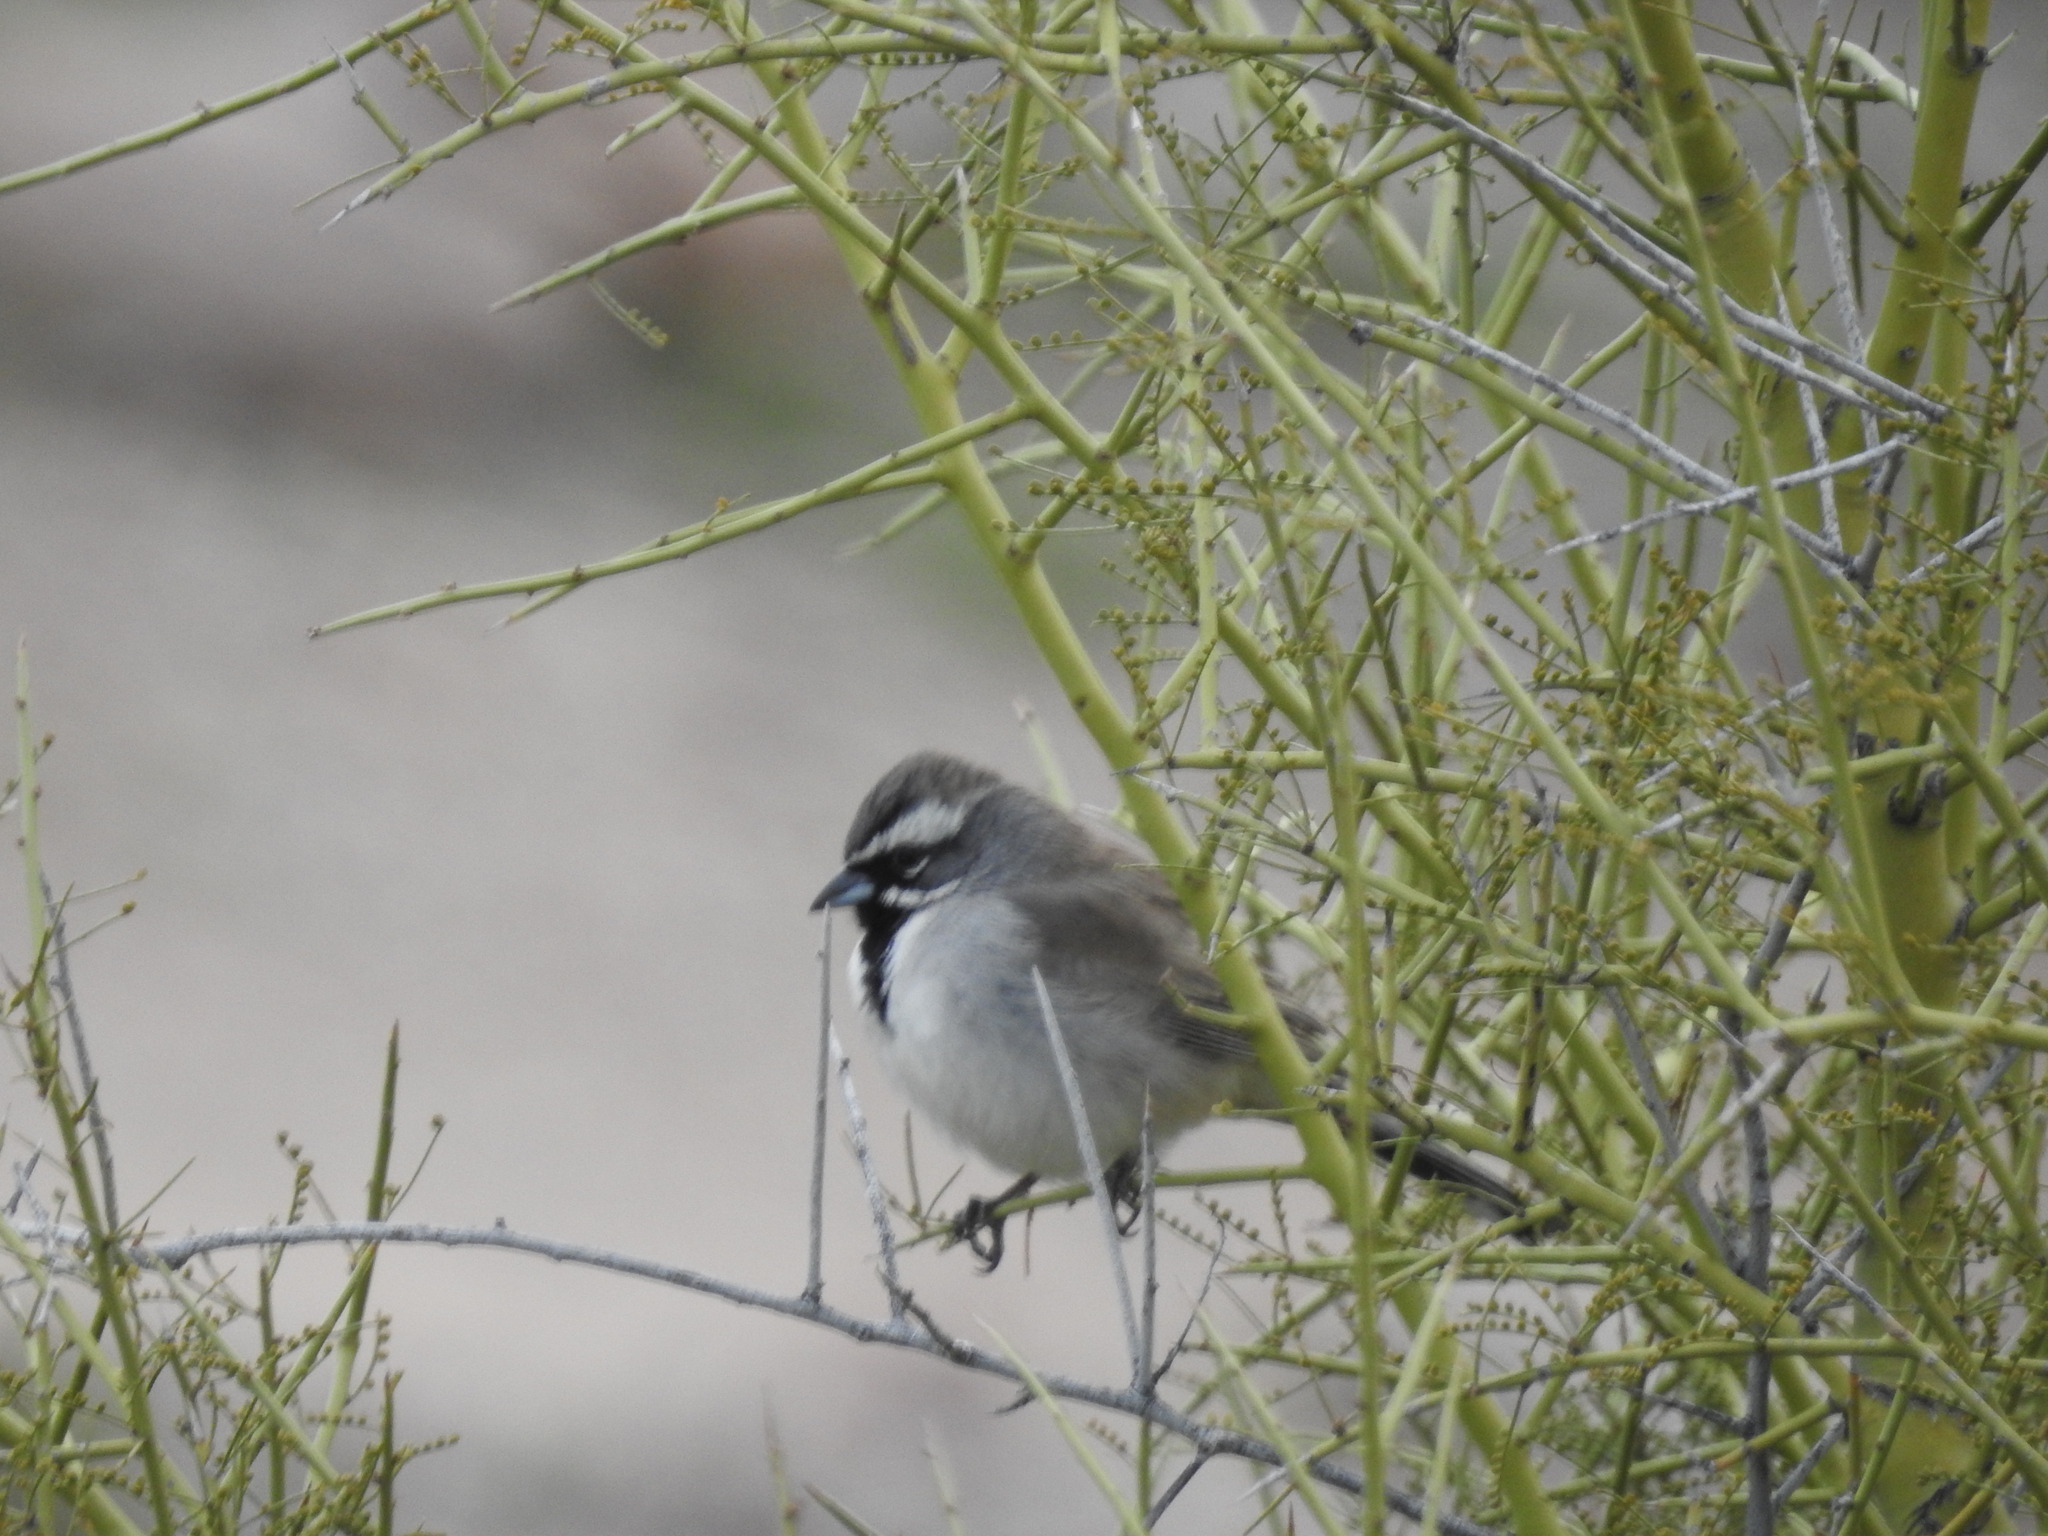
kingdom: Animalia
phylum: Chordata
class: Aves
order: Passeriformes
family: Passerellidae
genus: Amphispiza
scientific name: Amphispiza bilineata
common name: Black-throated sparrow
